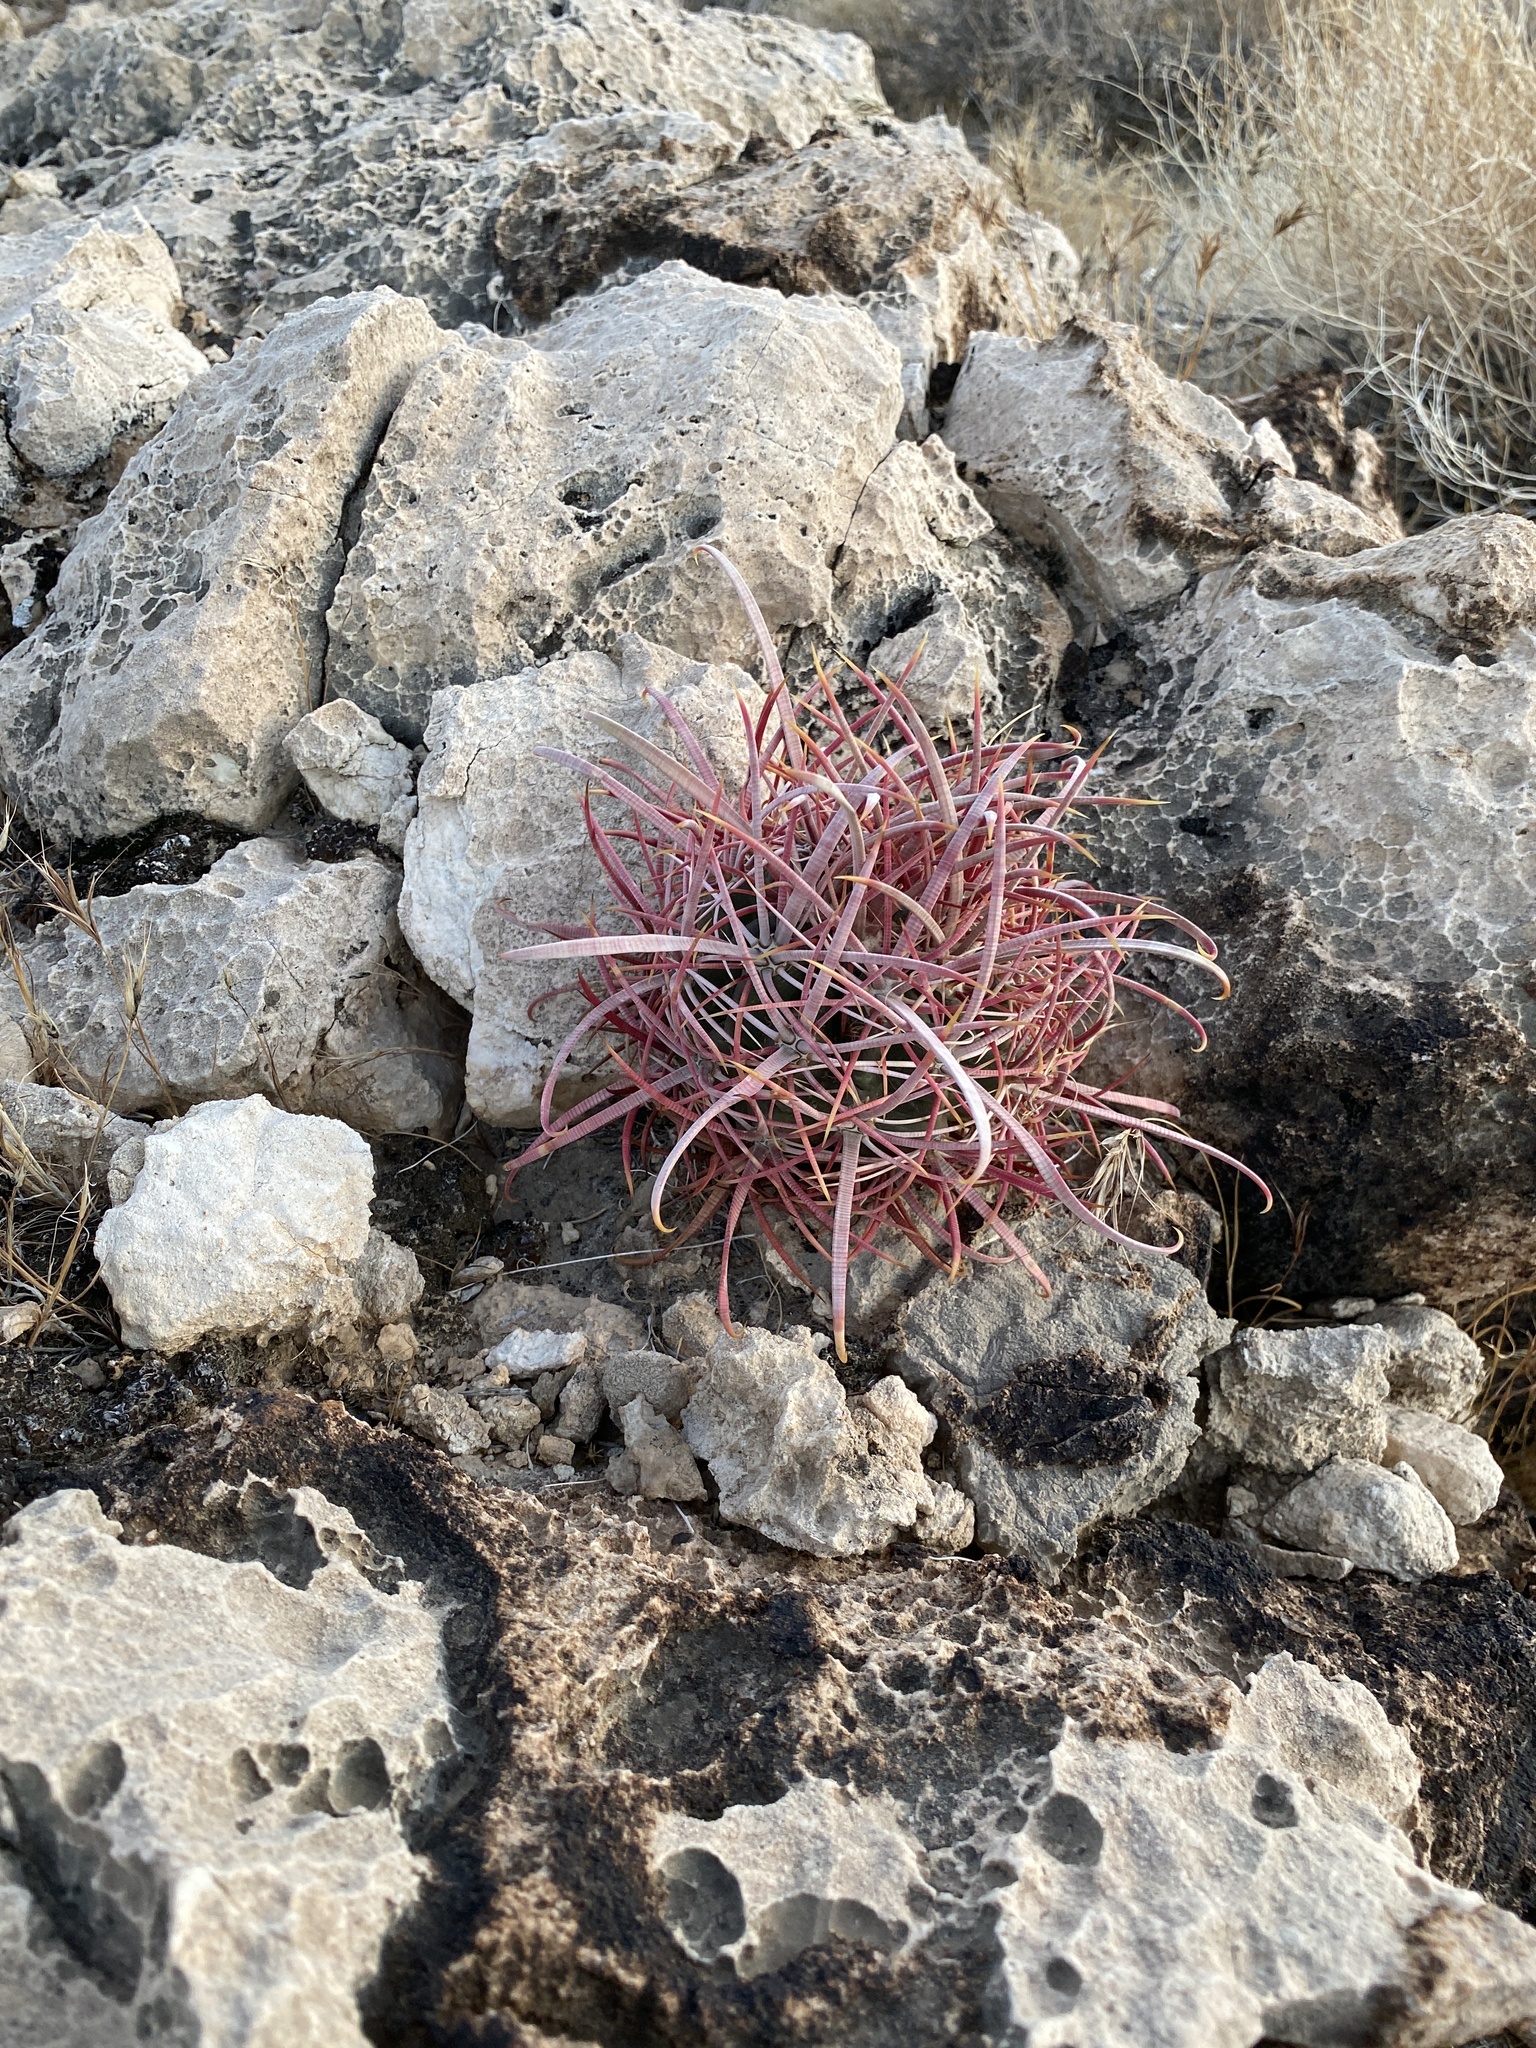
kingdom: Plantae
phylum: Tracheophyta
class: Magnoliopsida
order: Caryophyllales
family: Cactaceae
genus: Ferocactus
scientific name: Ferocactus cylindraceus
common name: California barrel cactus
